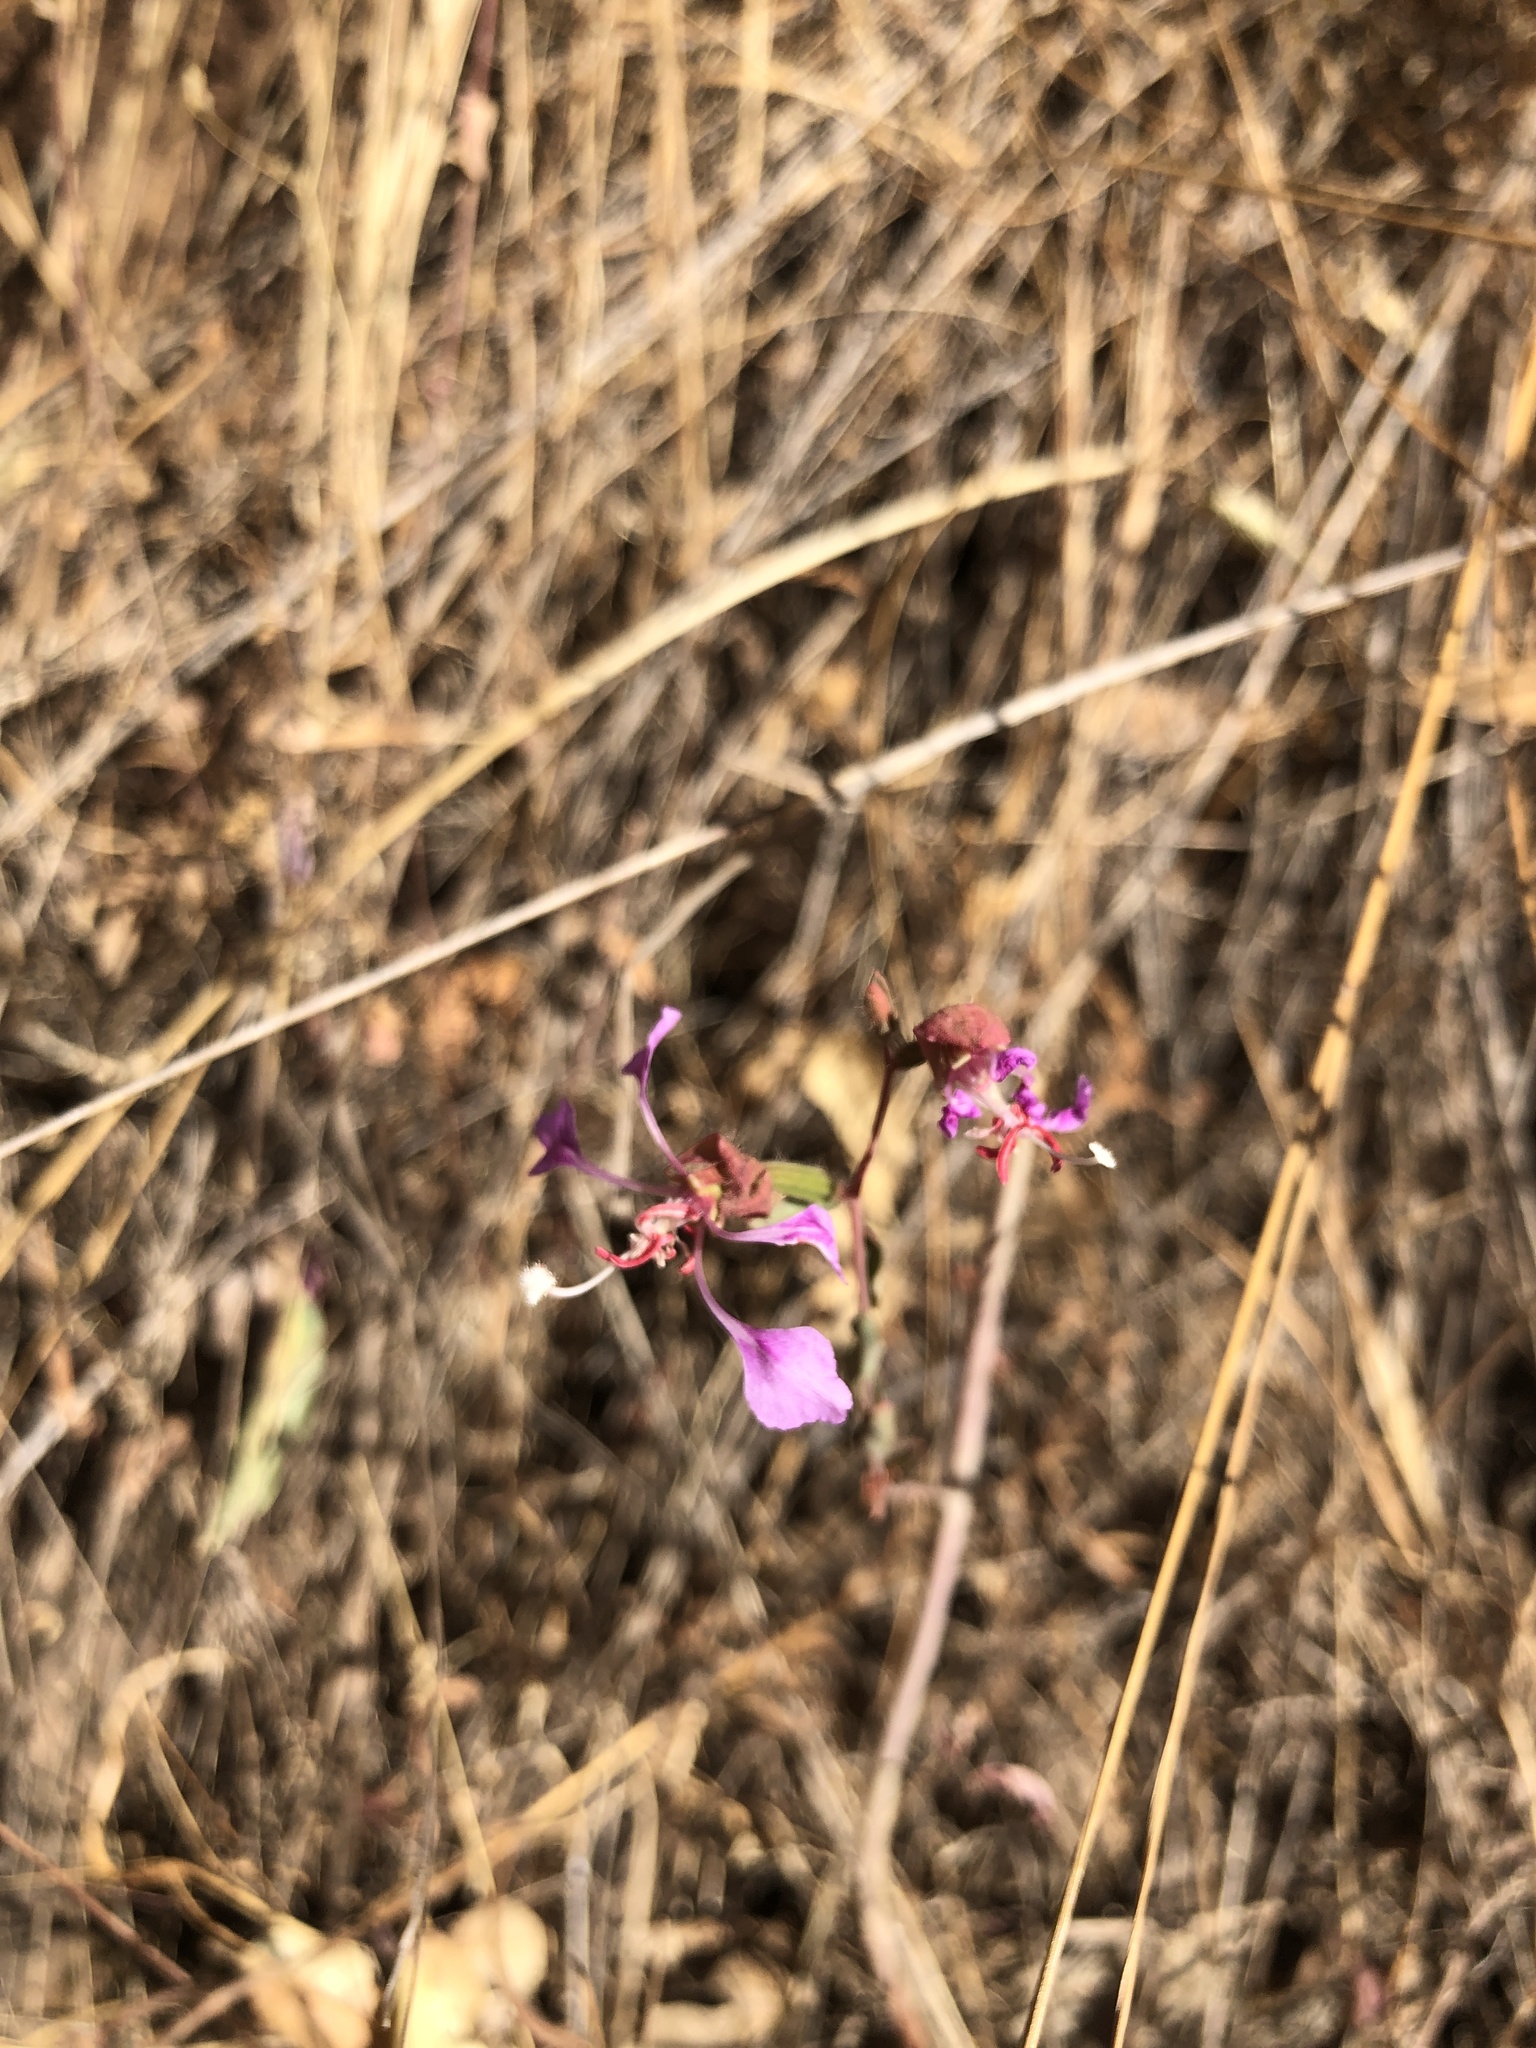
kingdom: Plantae
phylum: Tracheophyta
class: Magnoliopsida
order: Myrtales
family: Onagraceae
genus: Clarkia
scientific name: Clarkia unguiculata
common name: Clarkia
